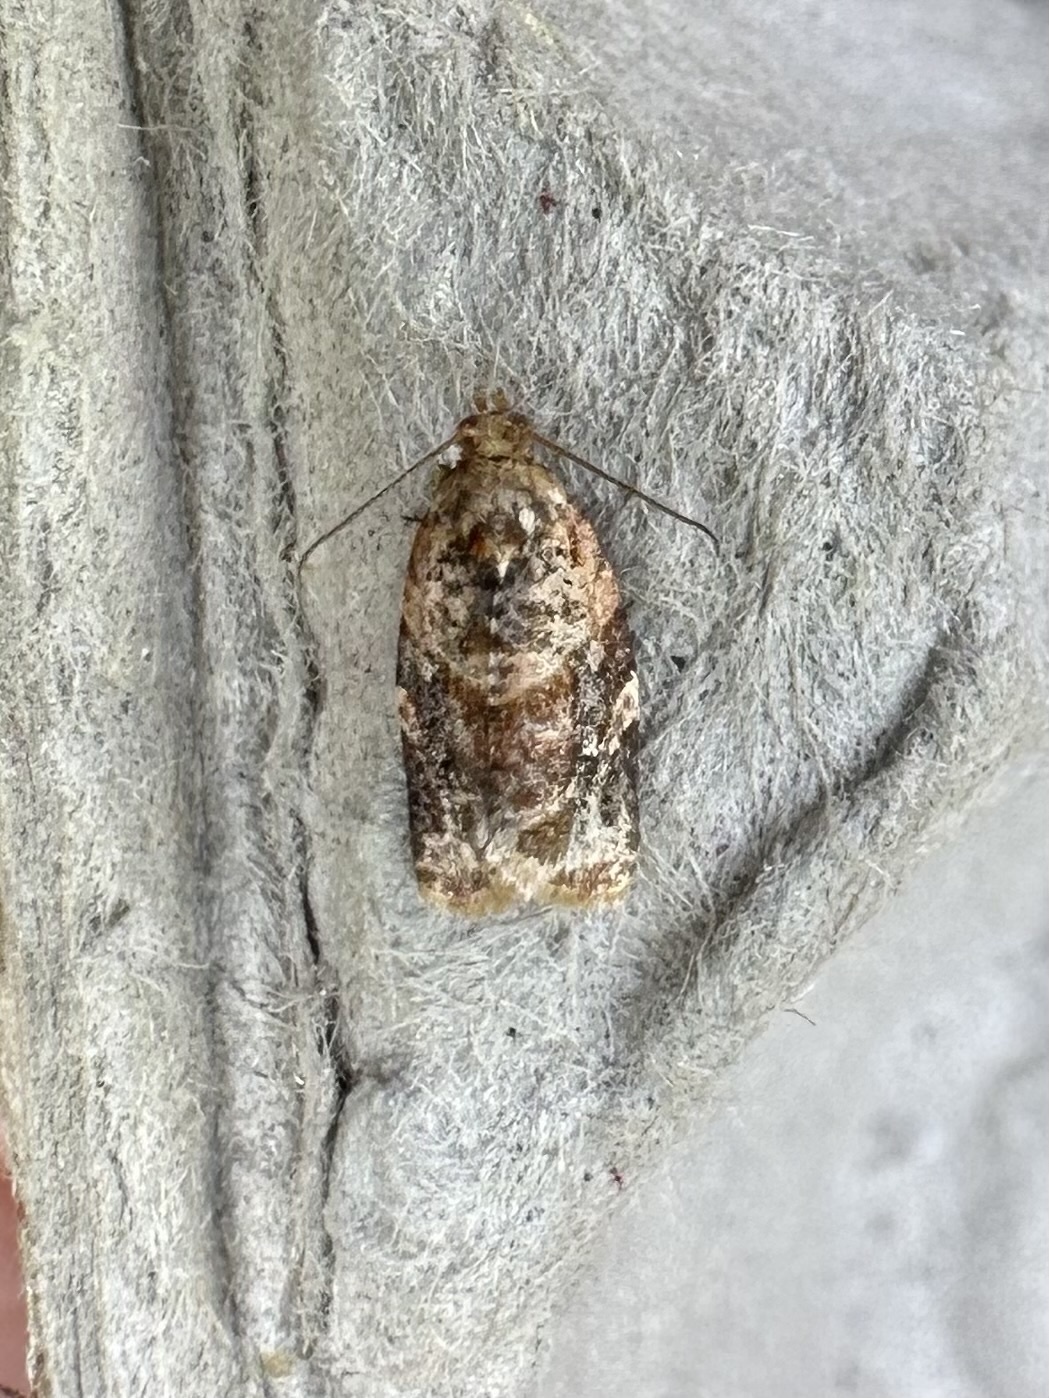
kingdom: Animalia
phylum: Arthropoda
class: Insecta
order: Lepidoptera
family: Tortricidae
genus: Argyrotaenia
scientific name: Argyrotaenia velutinana
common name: Red-banded leafroller moth
